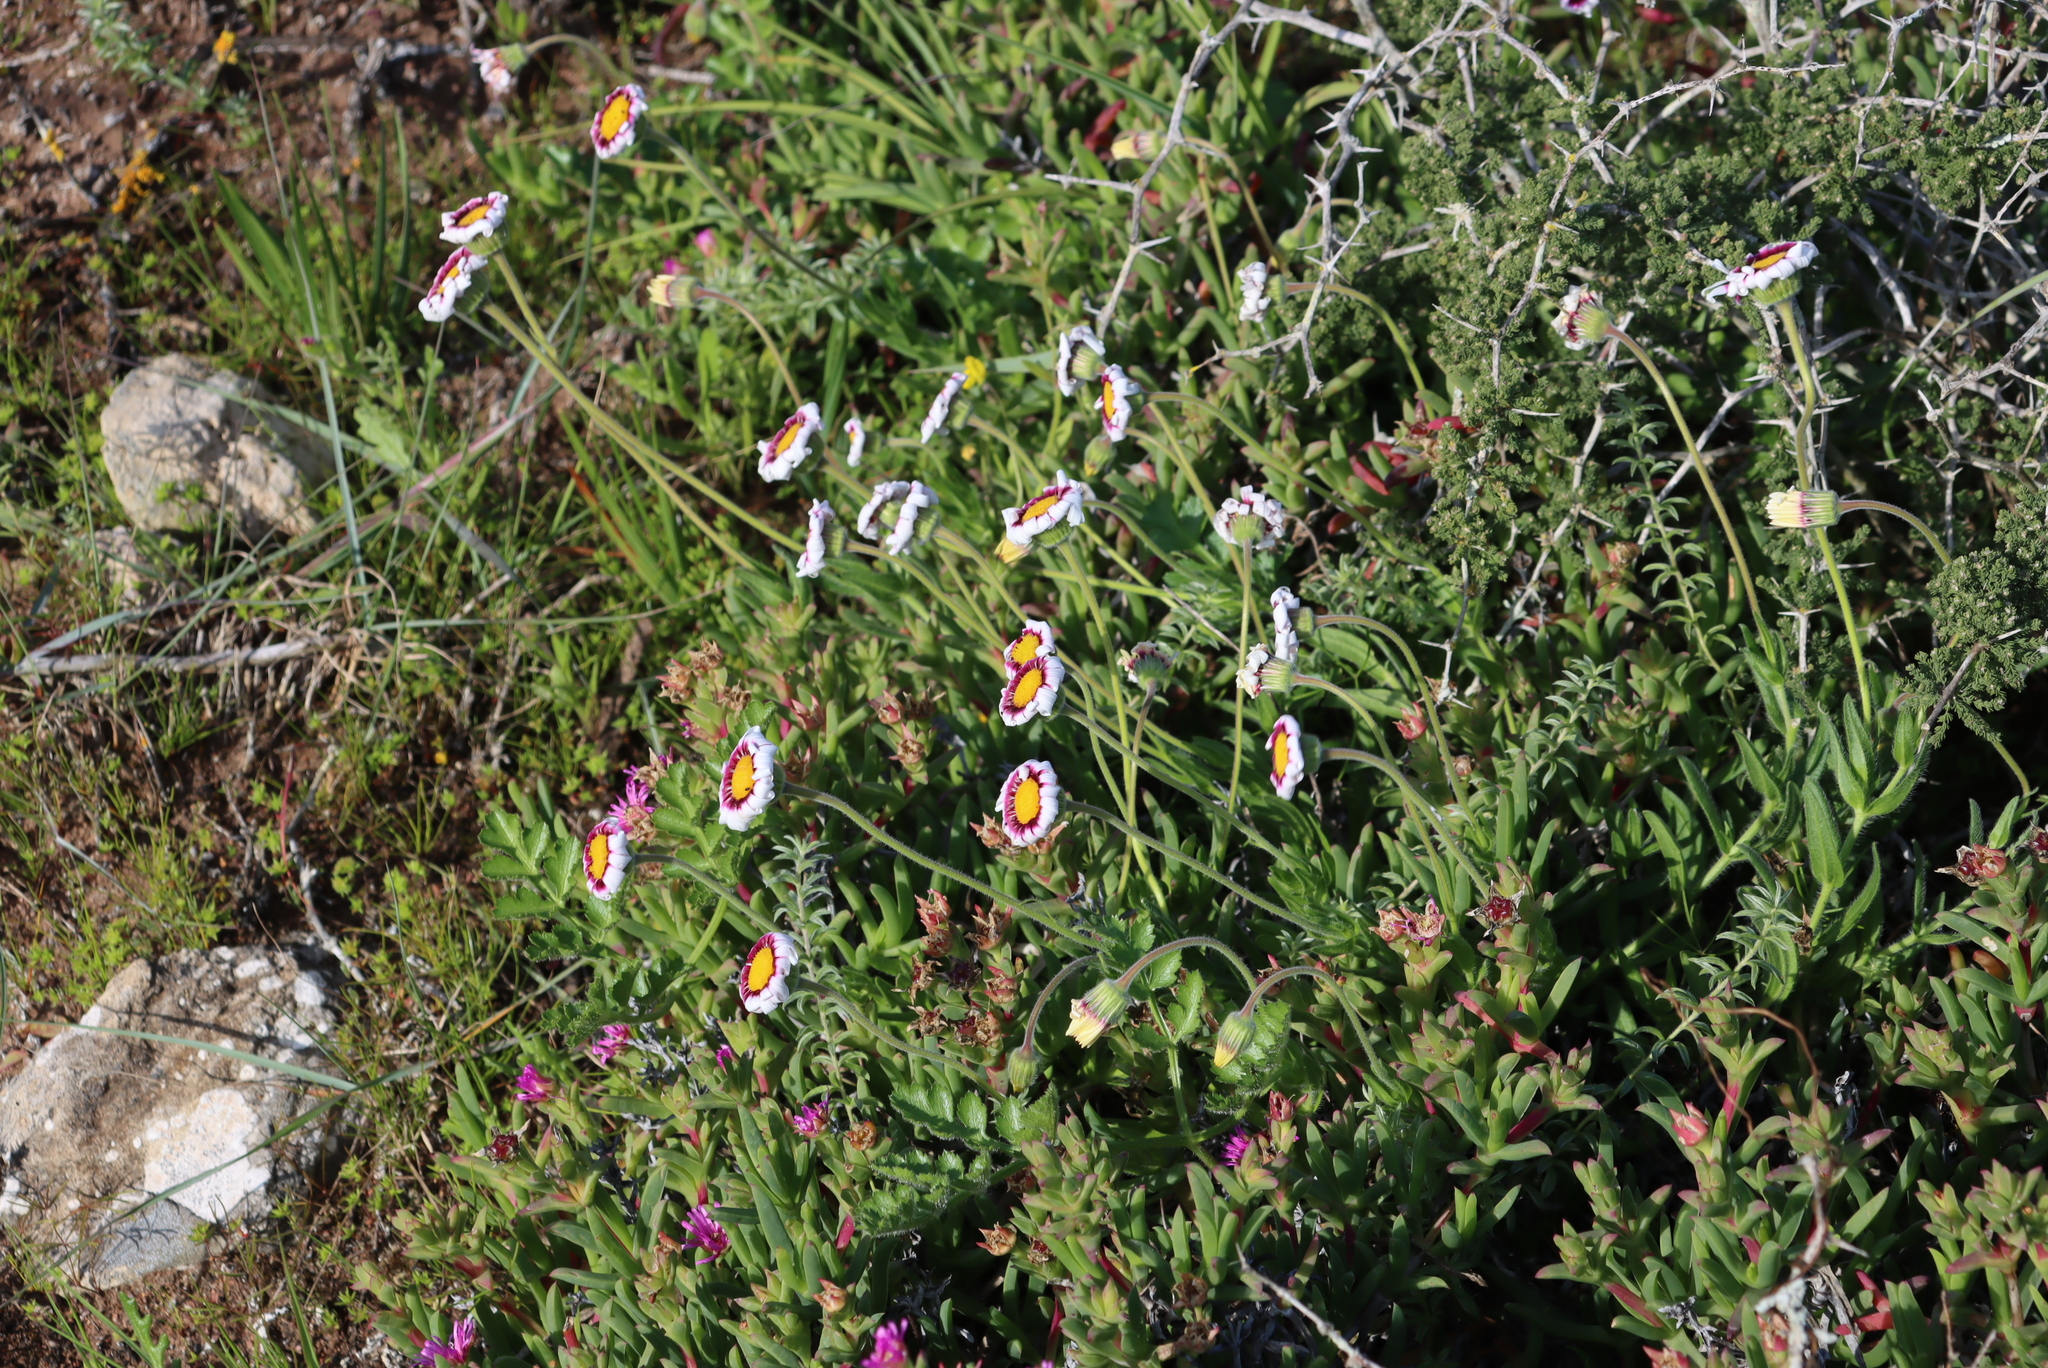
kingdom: Plantae
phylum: Tracheophyta
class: Magnoliopsida
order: Asterales
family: Asteraceae
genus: Felicia
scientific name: Felicia elongata
